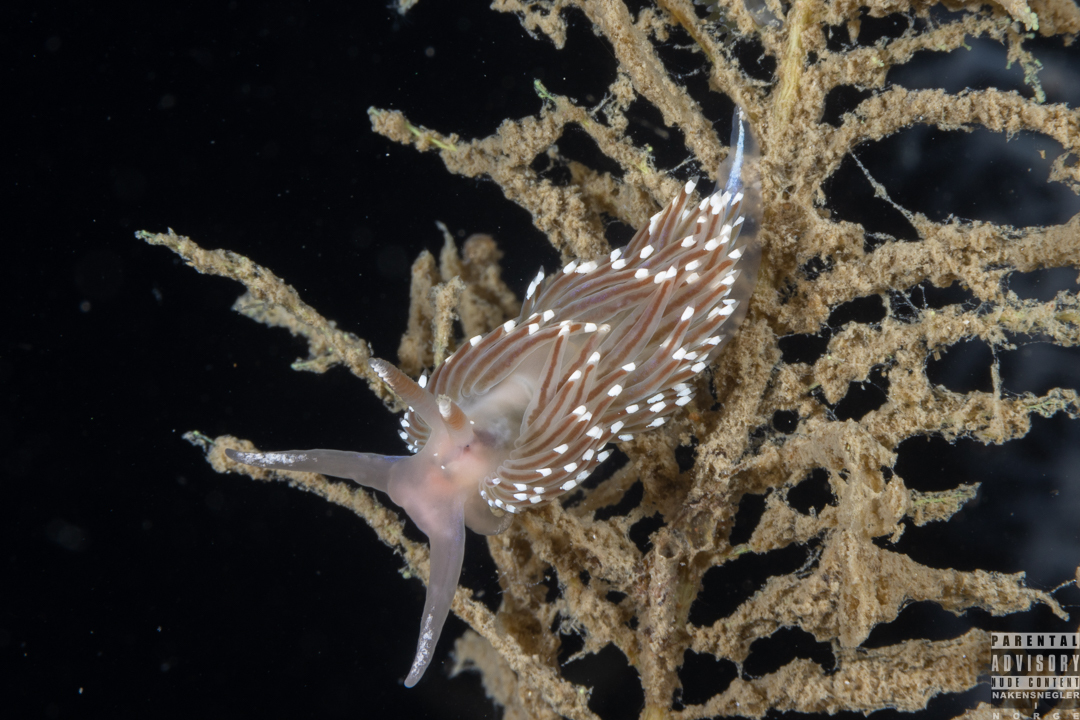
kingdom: Animalia
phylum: Mollusca
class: Gastropoda
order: Nudibranchia
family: Facelinidae
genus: Facelina
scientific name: Facelina bostoniensis
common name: Boston facelina
